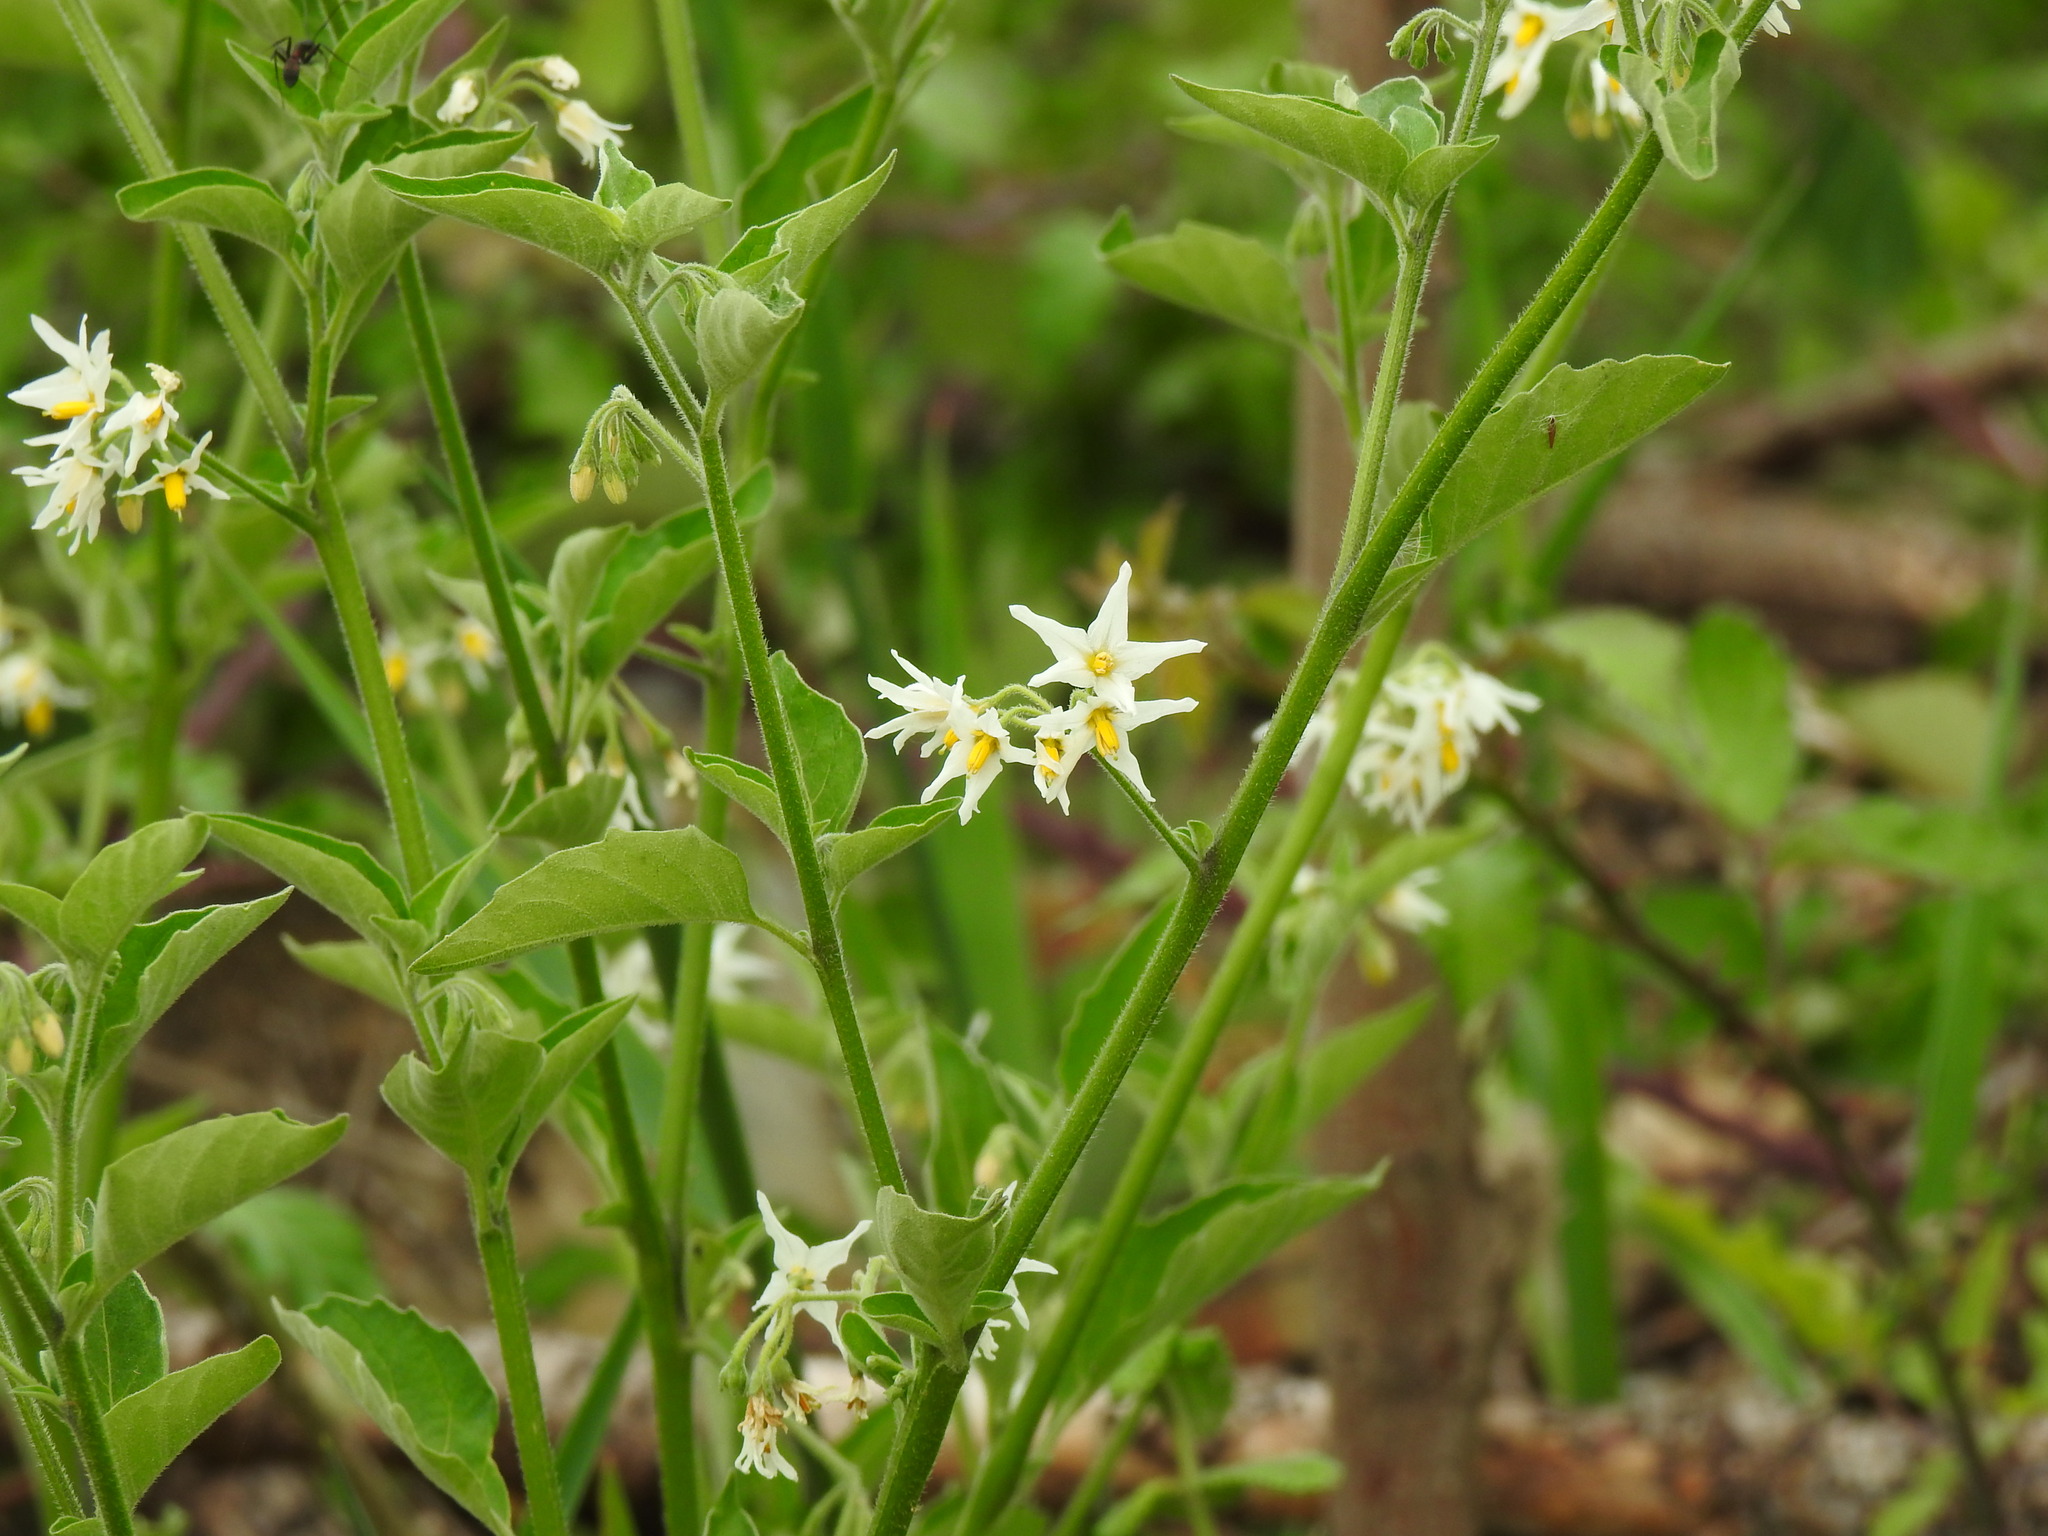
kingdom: Plantae
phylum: Tracheophyta
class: Magnoliopsida
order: Solanales
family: Solanaceae
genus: Solanum
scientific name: Solanum chenopodioides
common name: Tall nightshade
